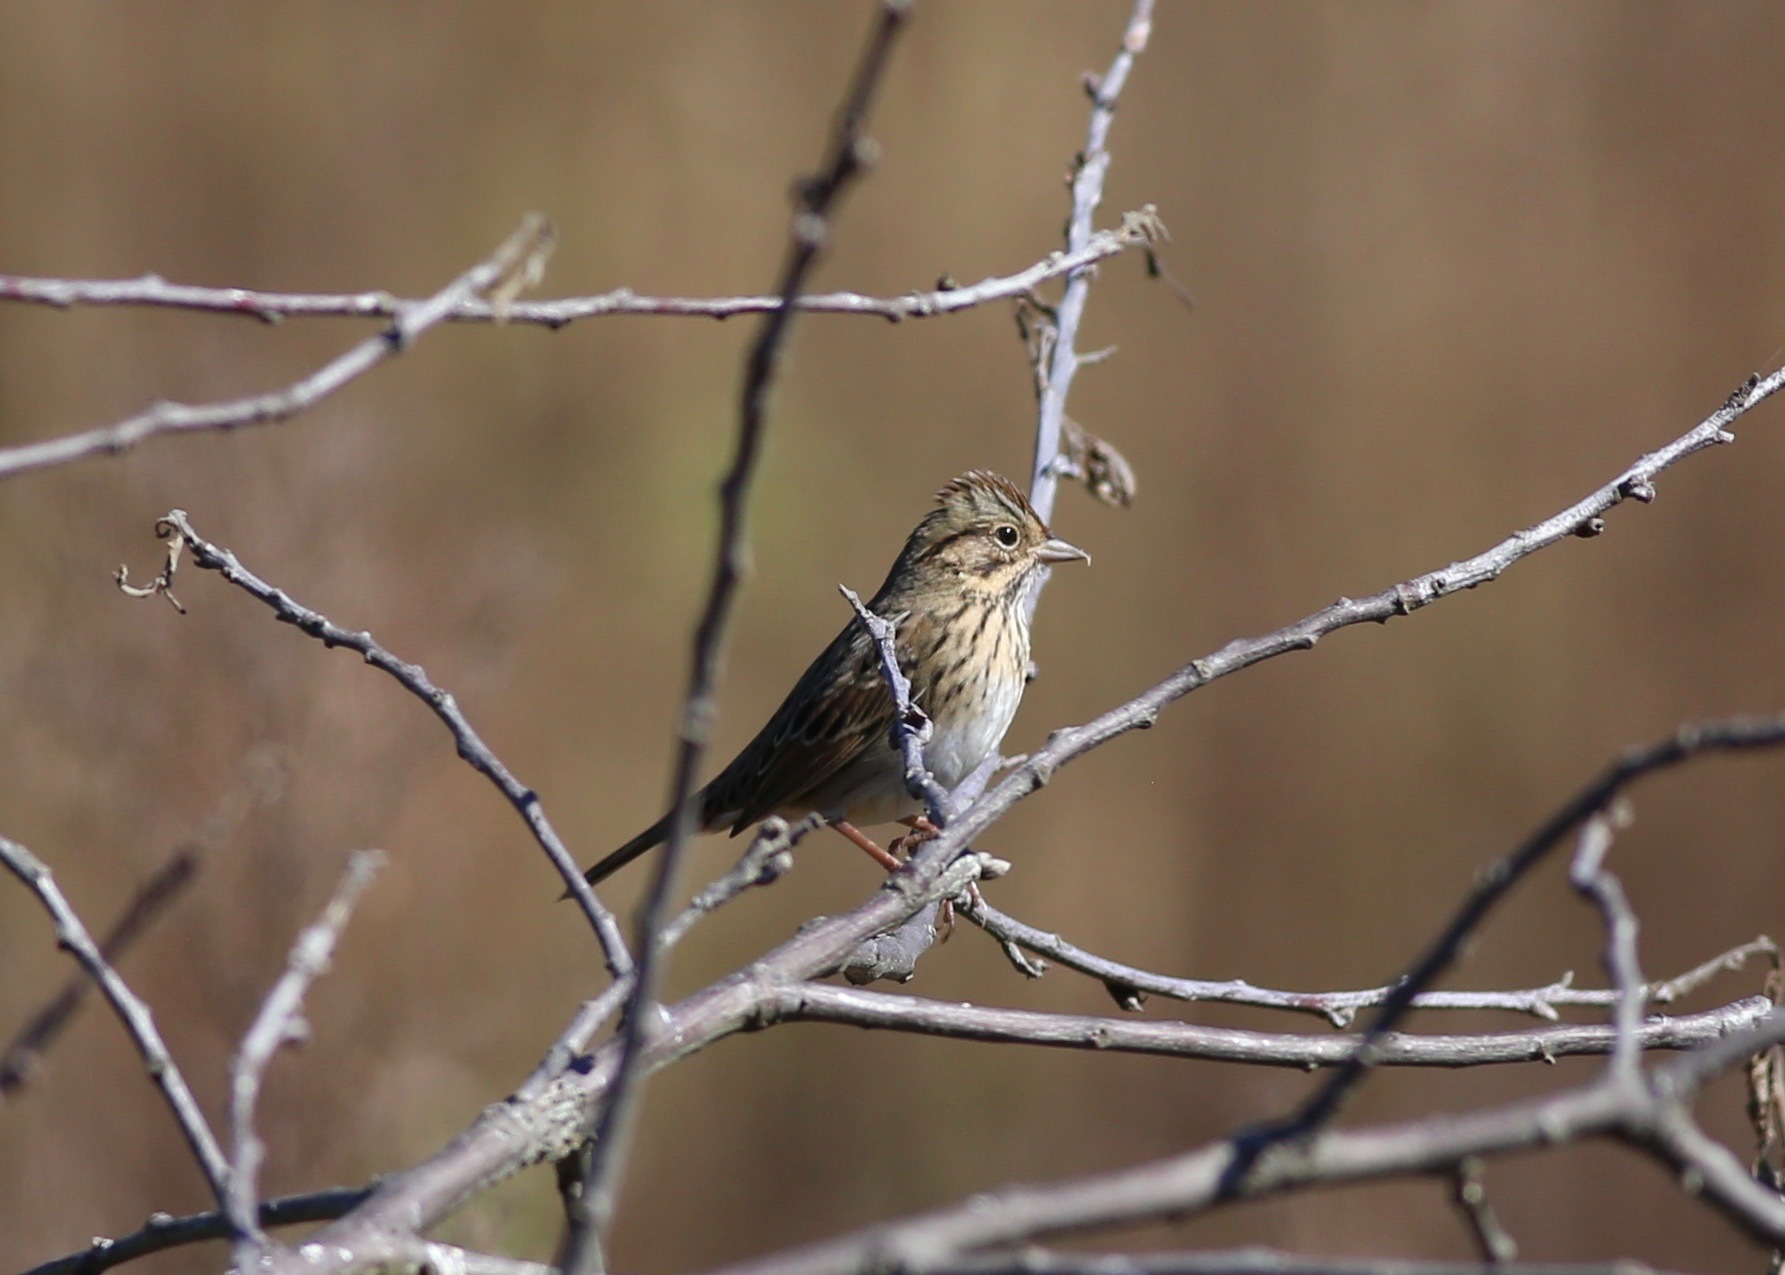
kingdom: Animalia
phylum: Chordata
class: Aves
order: Passeriformes
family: Passerellidae
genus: Melospiza
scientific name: Melospiza lincolnii
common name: Lincoln's sparrow
